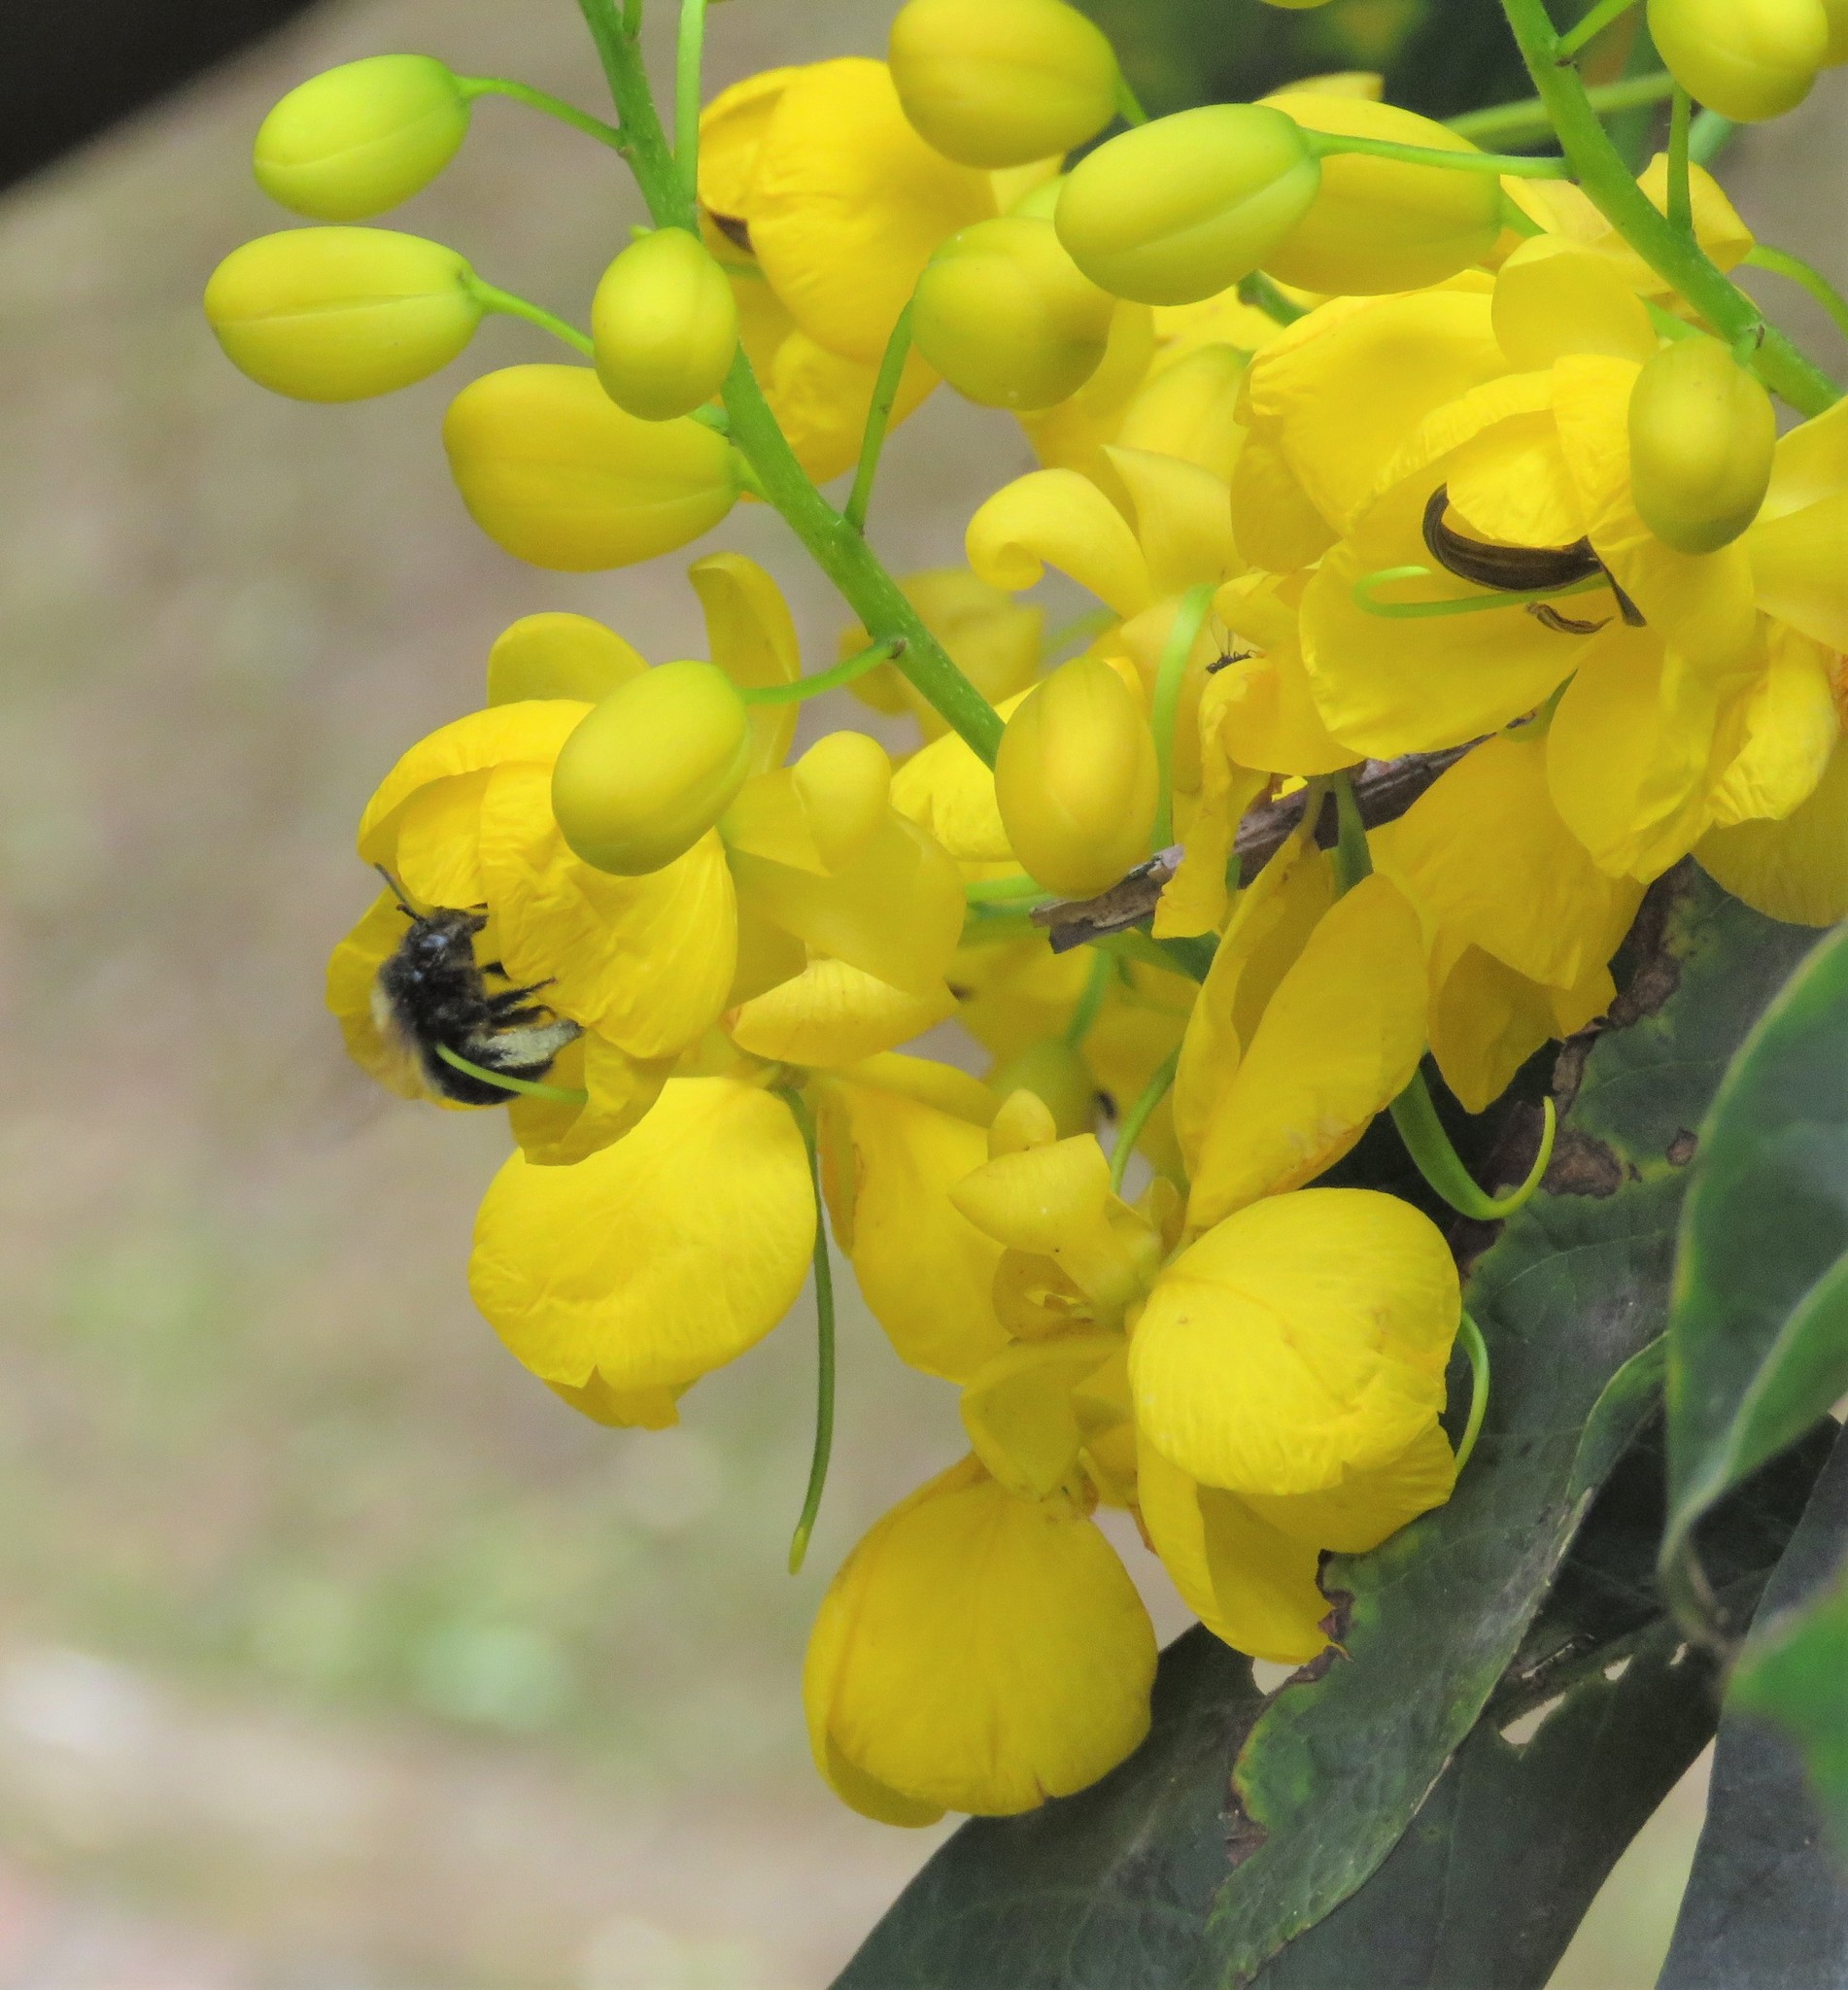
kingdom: Animalia
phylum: Arthropoda
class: Insecta
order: Hymenoptera
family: Apidae
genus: Thygater
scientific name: Thygater aethiops
